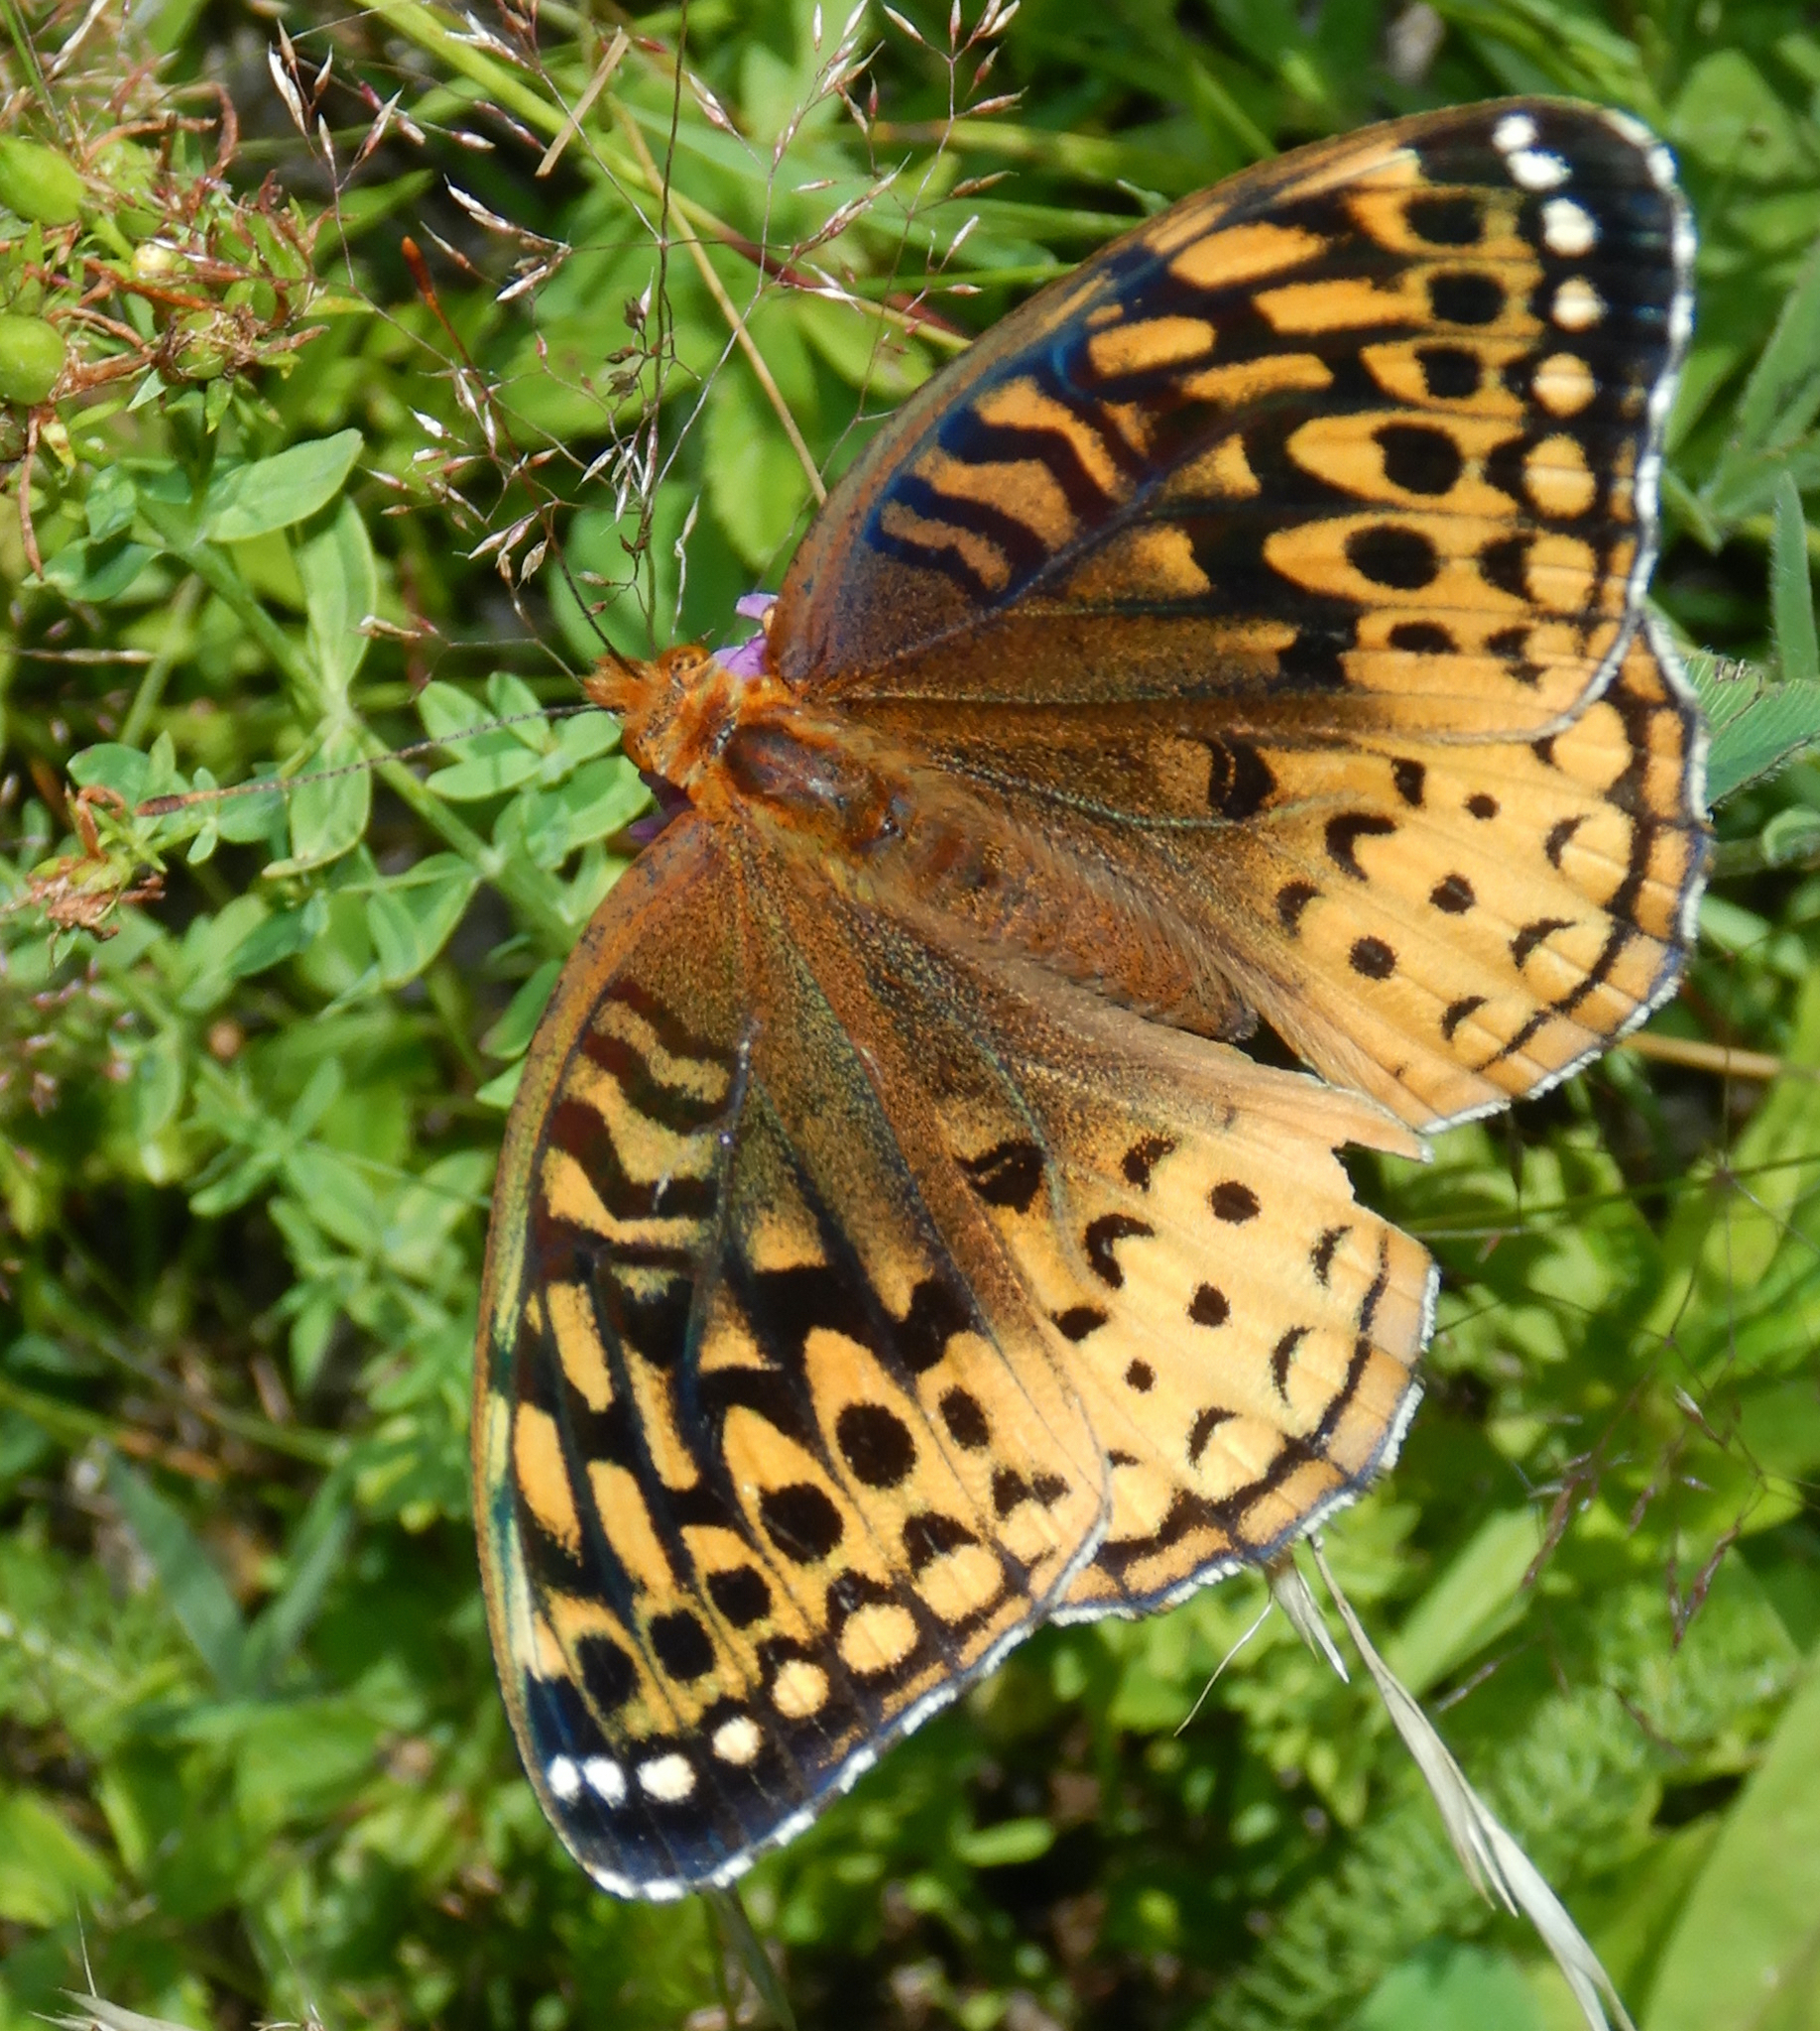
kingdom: Animalia
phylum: Arthropoda
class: Insecta
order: Lepidoptera
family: Nymphalidae
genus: Speyeria
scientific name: Speyeria cybele
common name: Great spangled fritillary
